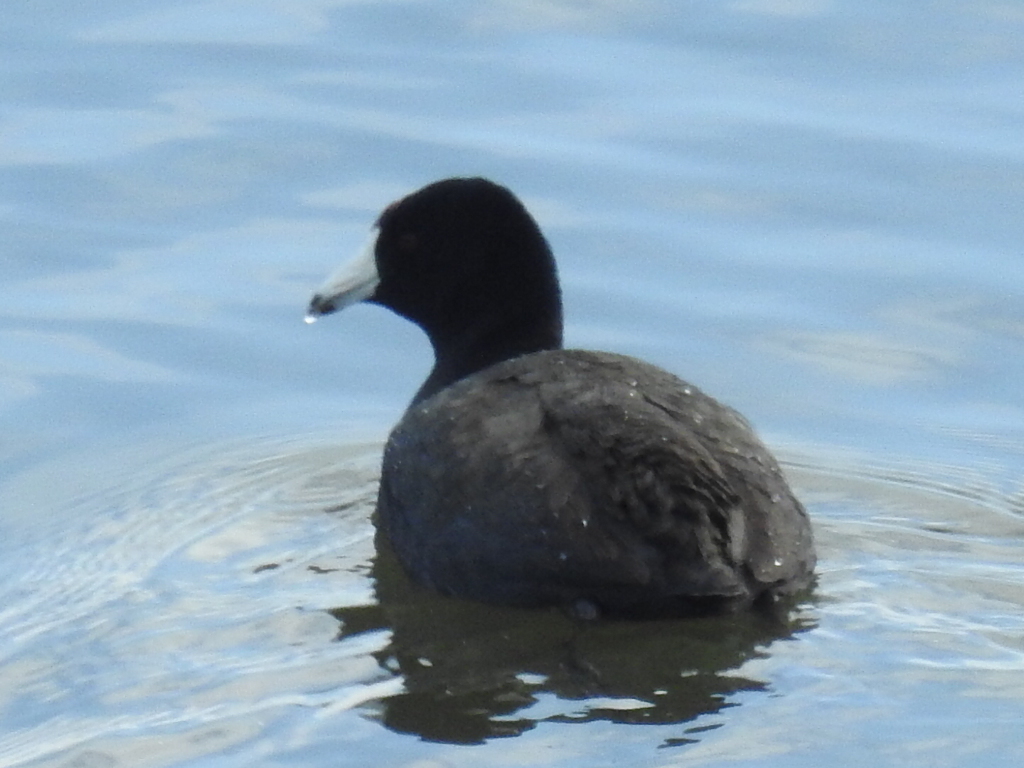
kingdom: Animalia
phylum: Chordata
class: Aves
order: Gruiformes
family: Rallidae
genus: Fulica
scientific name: Fulica americana
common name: American coot
